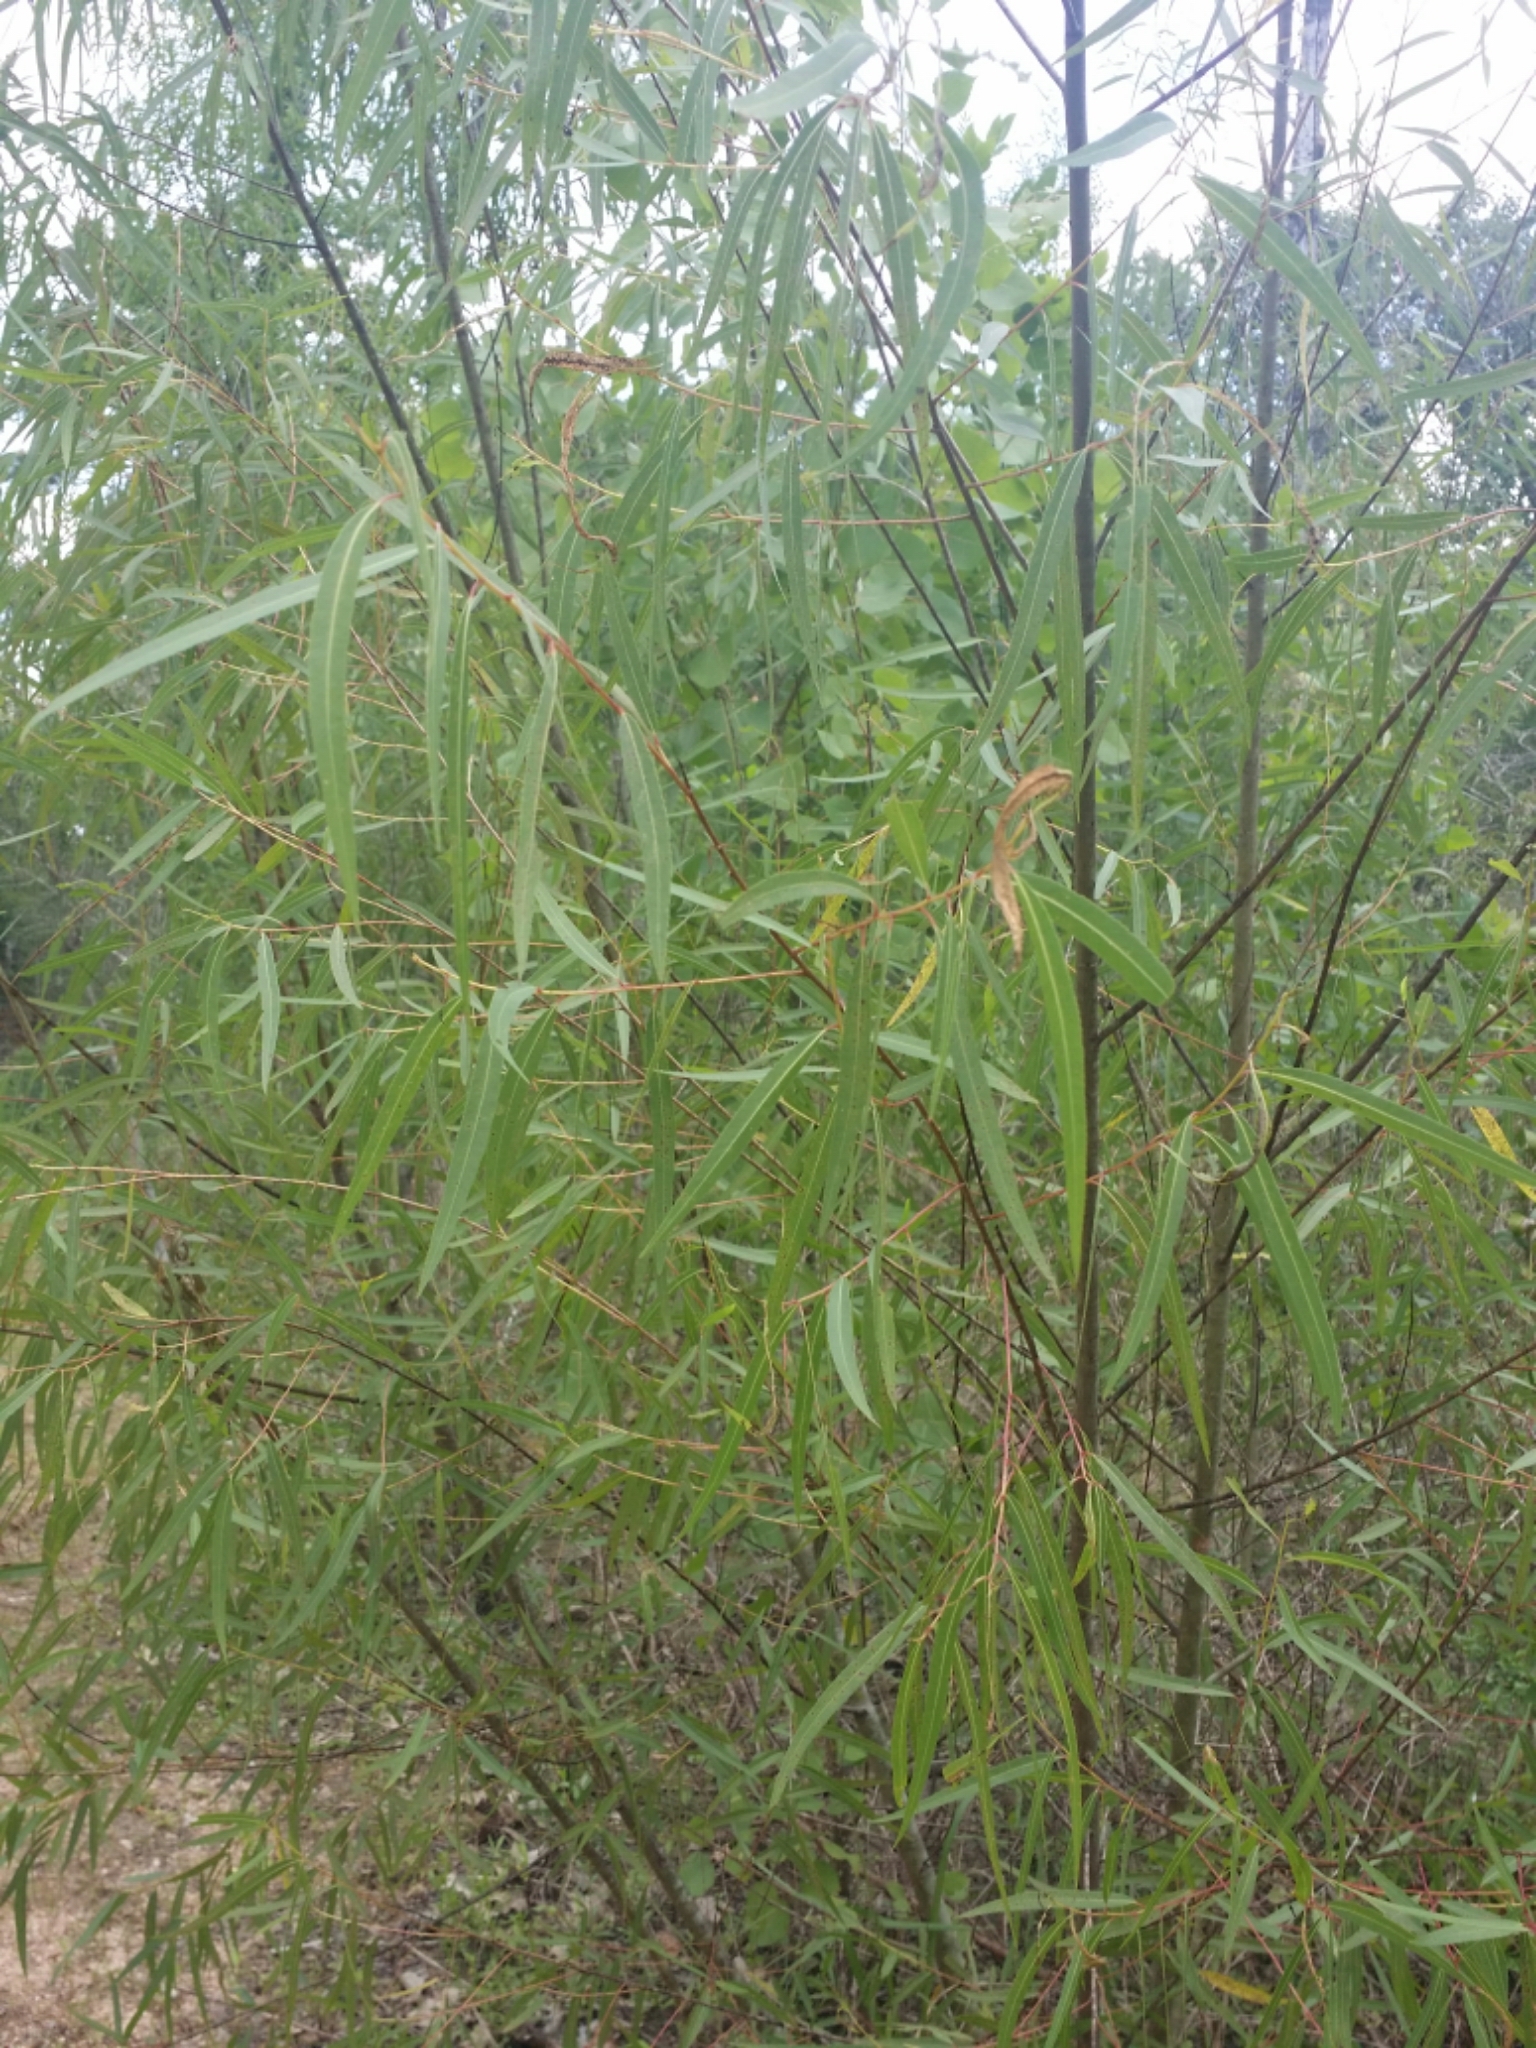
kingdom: Plantae
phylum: Tracheophyta
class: Magnoliopsida
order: Malpighiales
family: Salicaceae
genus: Salix
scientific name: Salix nigra
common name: Black willow
